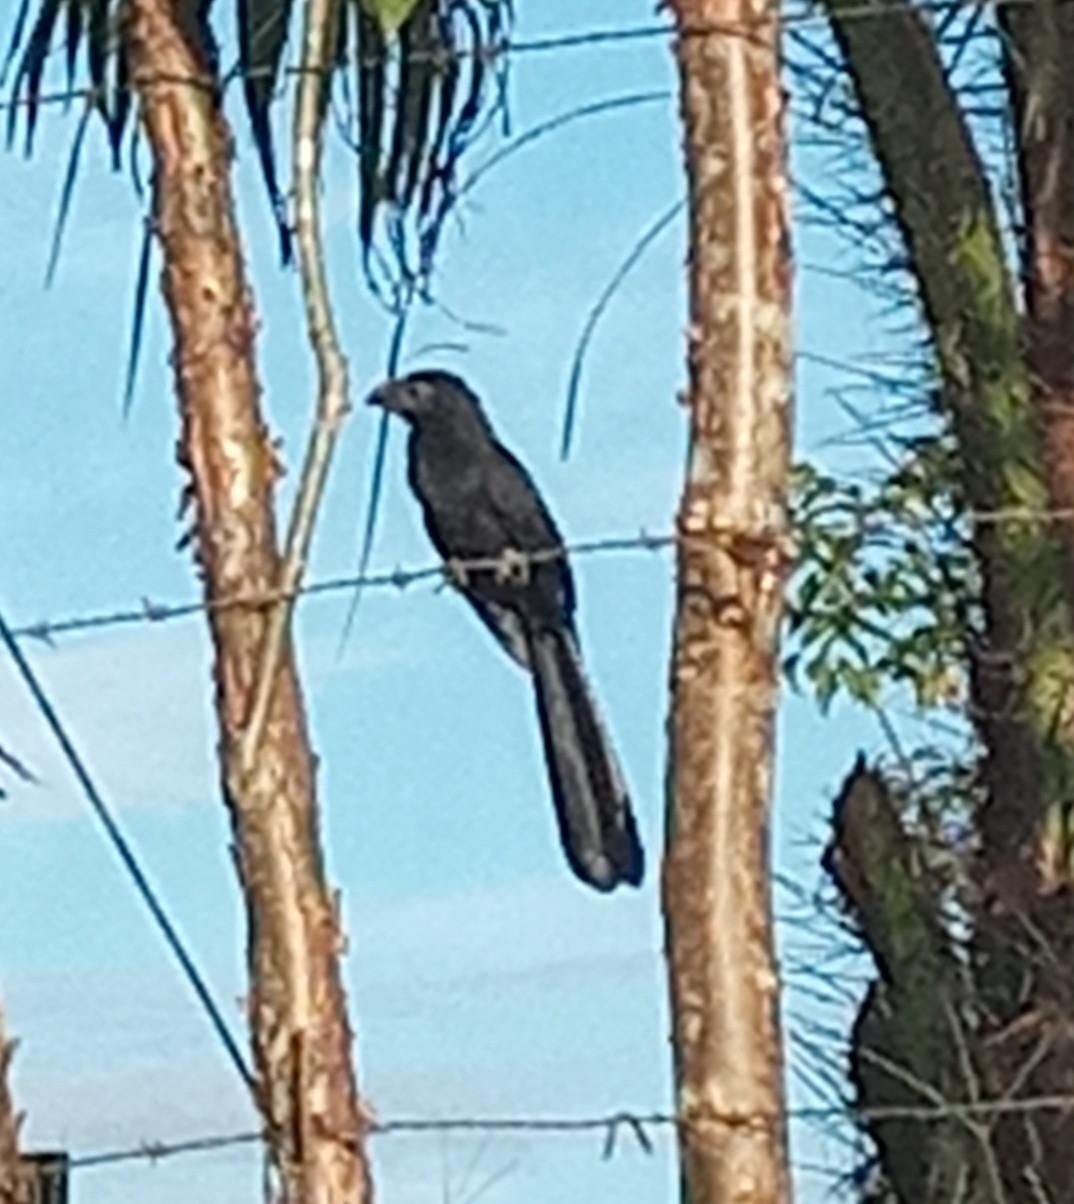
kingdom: Animalia
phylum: Chordata
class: Aves
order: Cuculiformes
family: Cuculidae
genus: Crotophaga
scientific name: Crotophaga ani
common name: Smooth-billed ani
